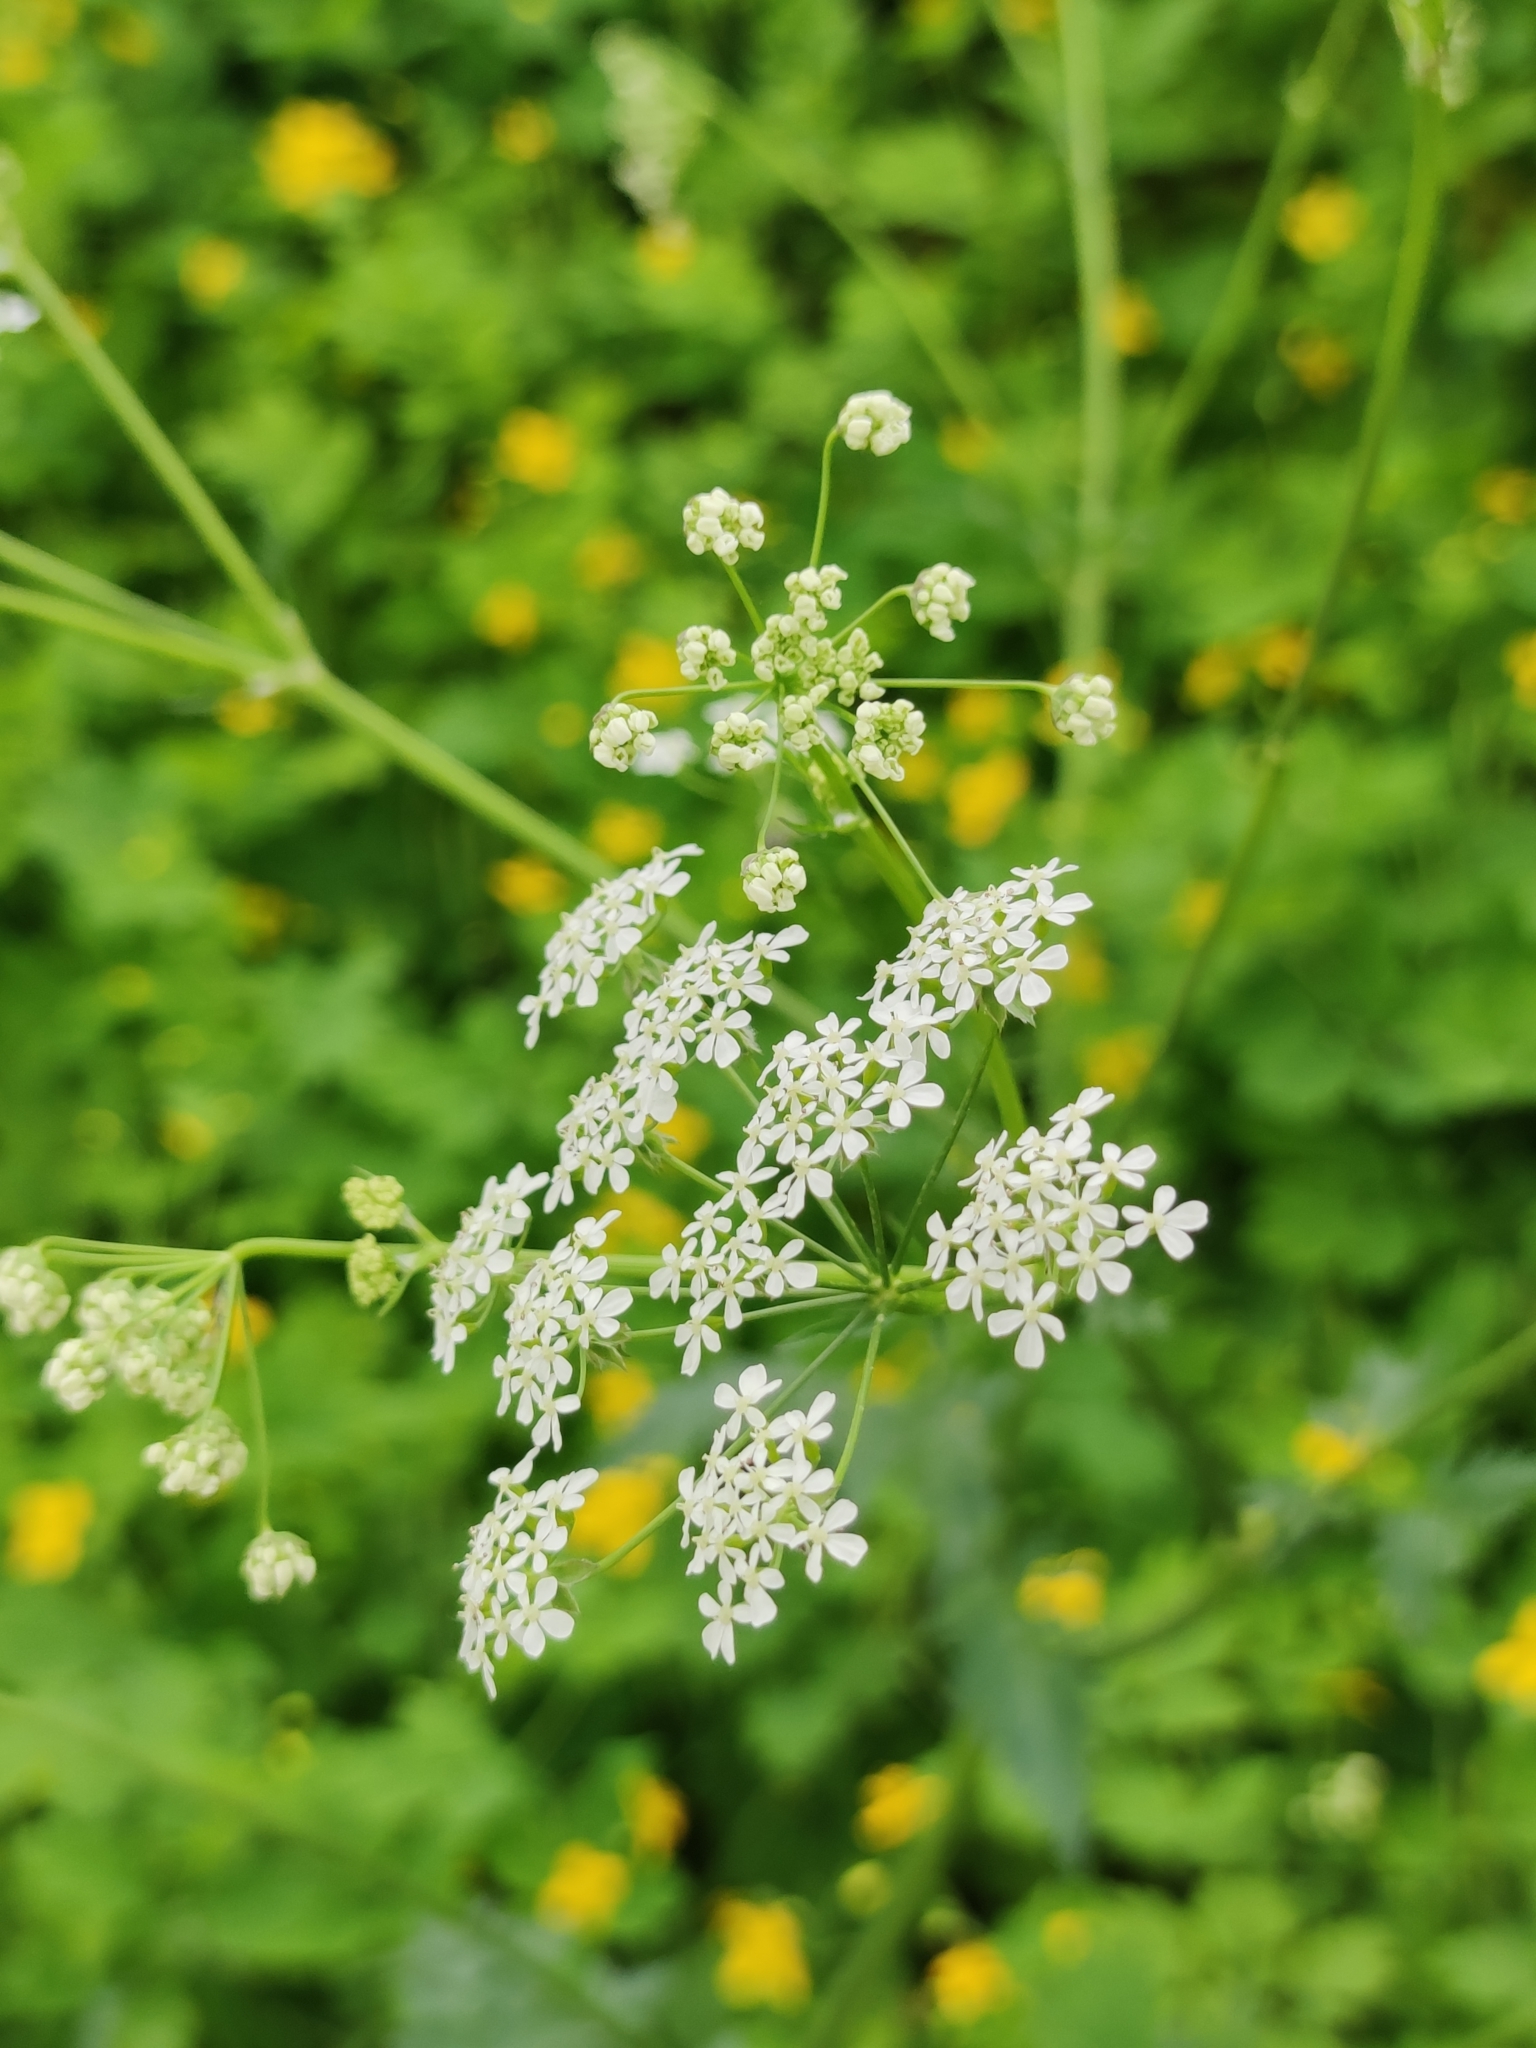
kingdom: Plantae
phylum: Tracheophyta
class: Magnoliopsida
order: Apiales
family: Apiaceae
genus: Anthriscus
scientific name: Anthriscus sylvestris
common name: Cow parsley
